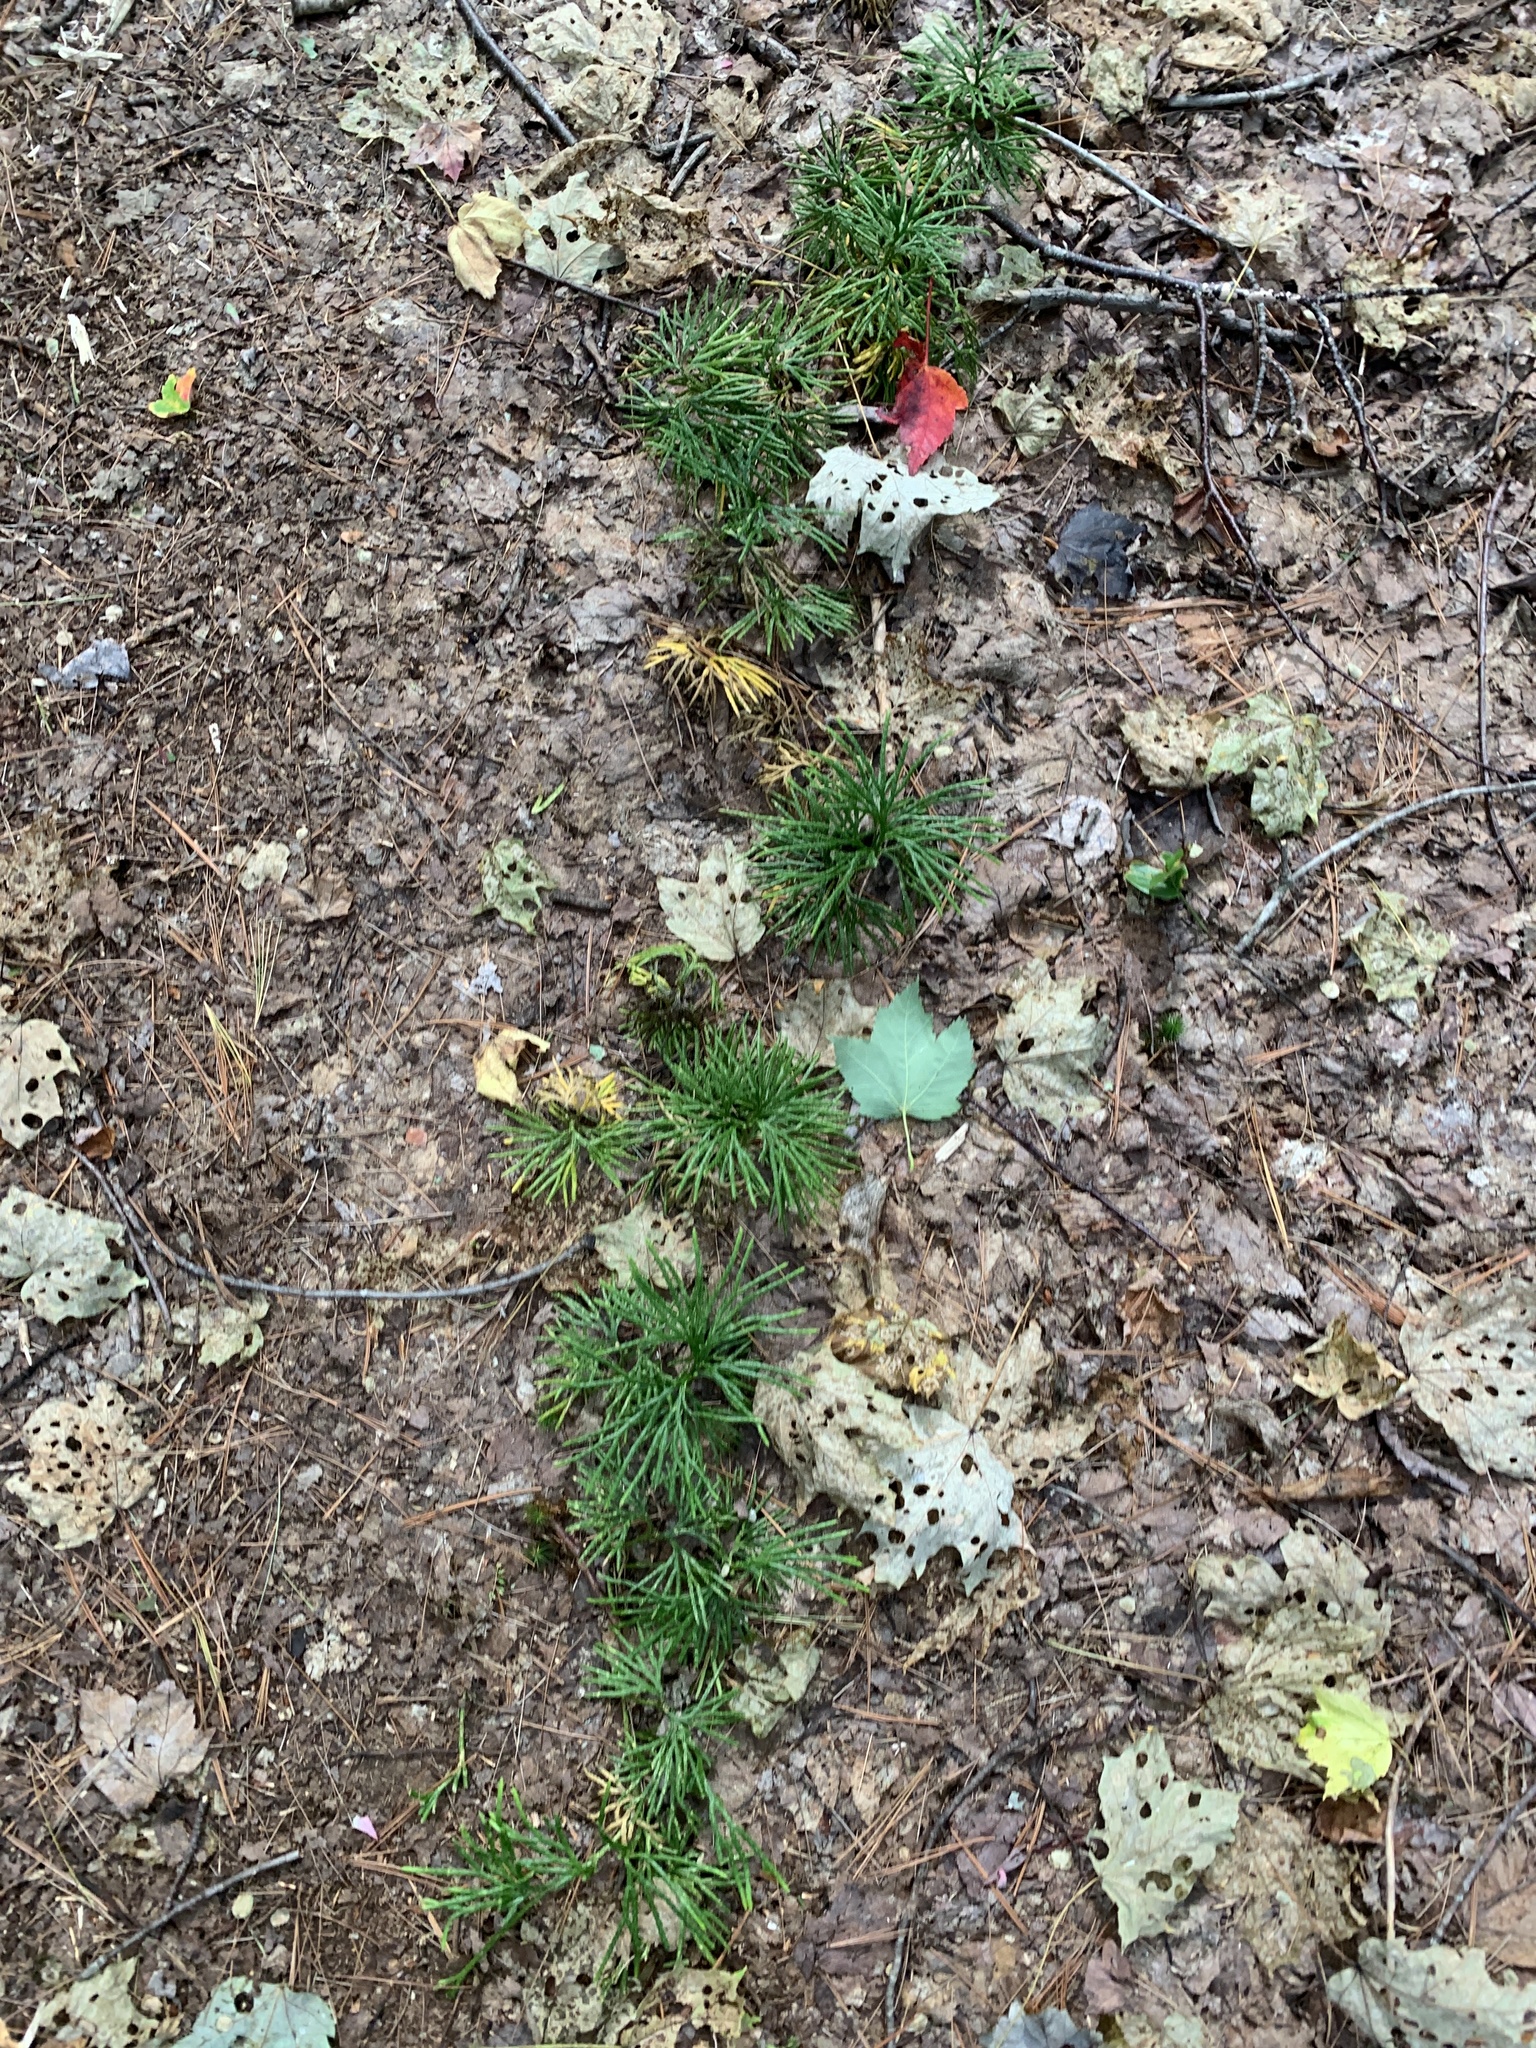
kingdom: Plantae
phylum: Tracheophyta
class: Lycopodiopsida
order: Lycopodiales
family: Lycopodiaceae
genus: Diphasiastrum
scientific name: Diphasiastrum digitatum
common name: Southern running-pine
